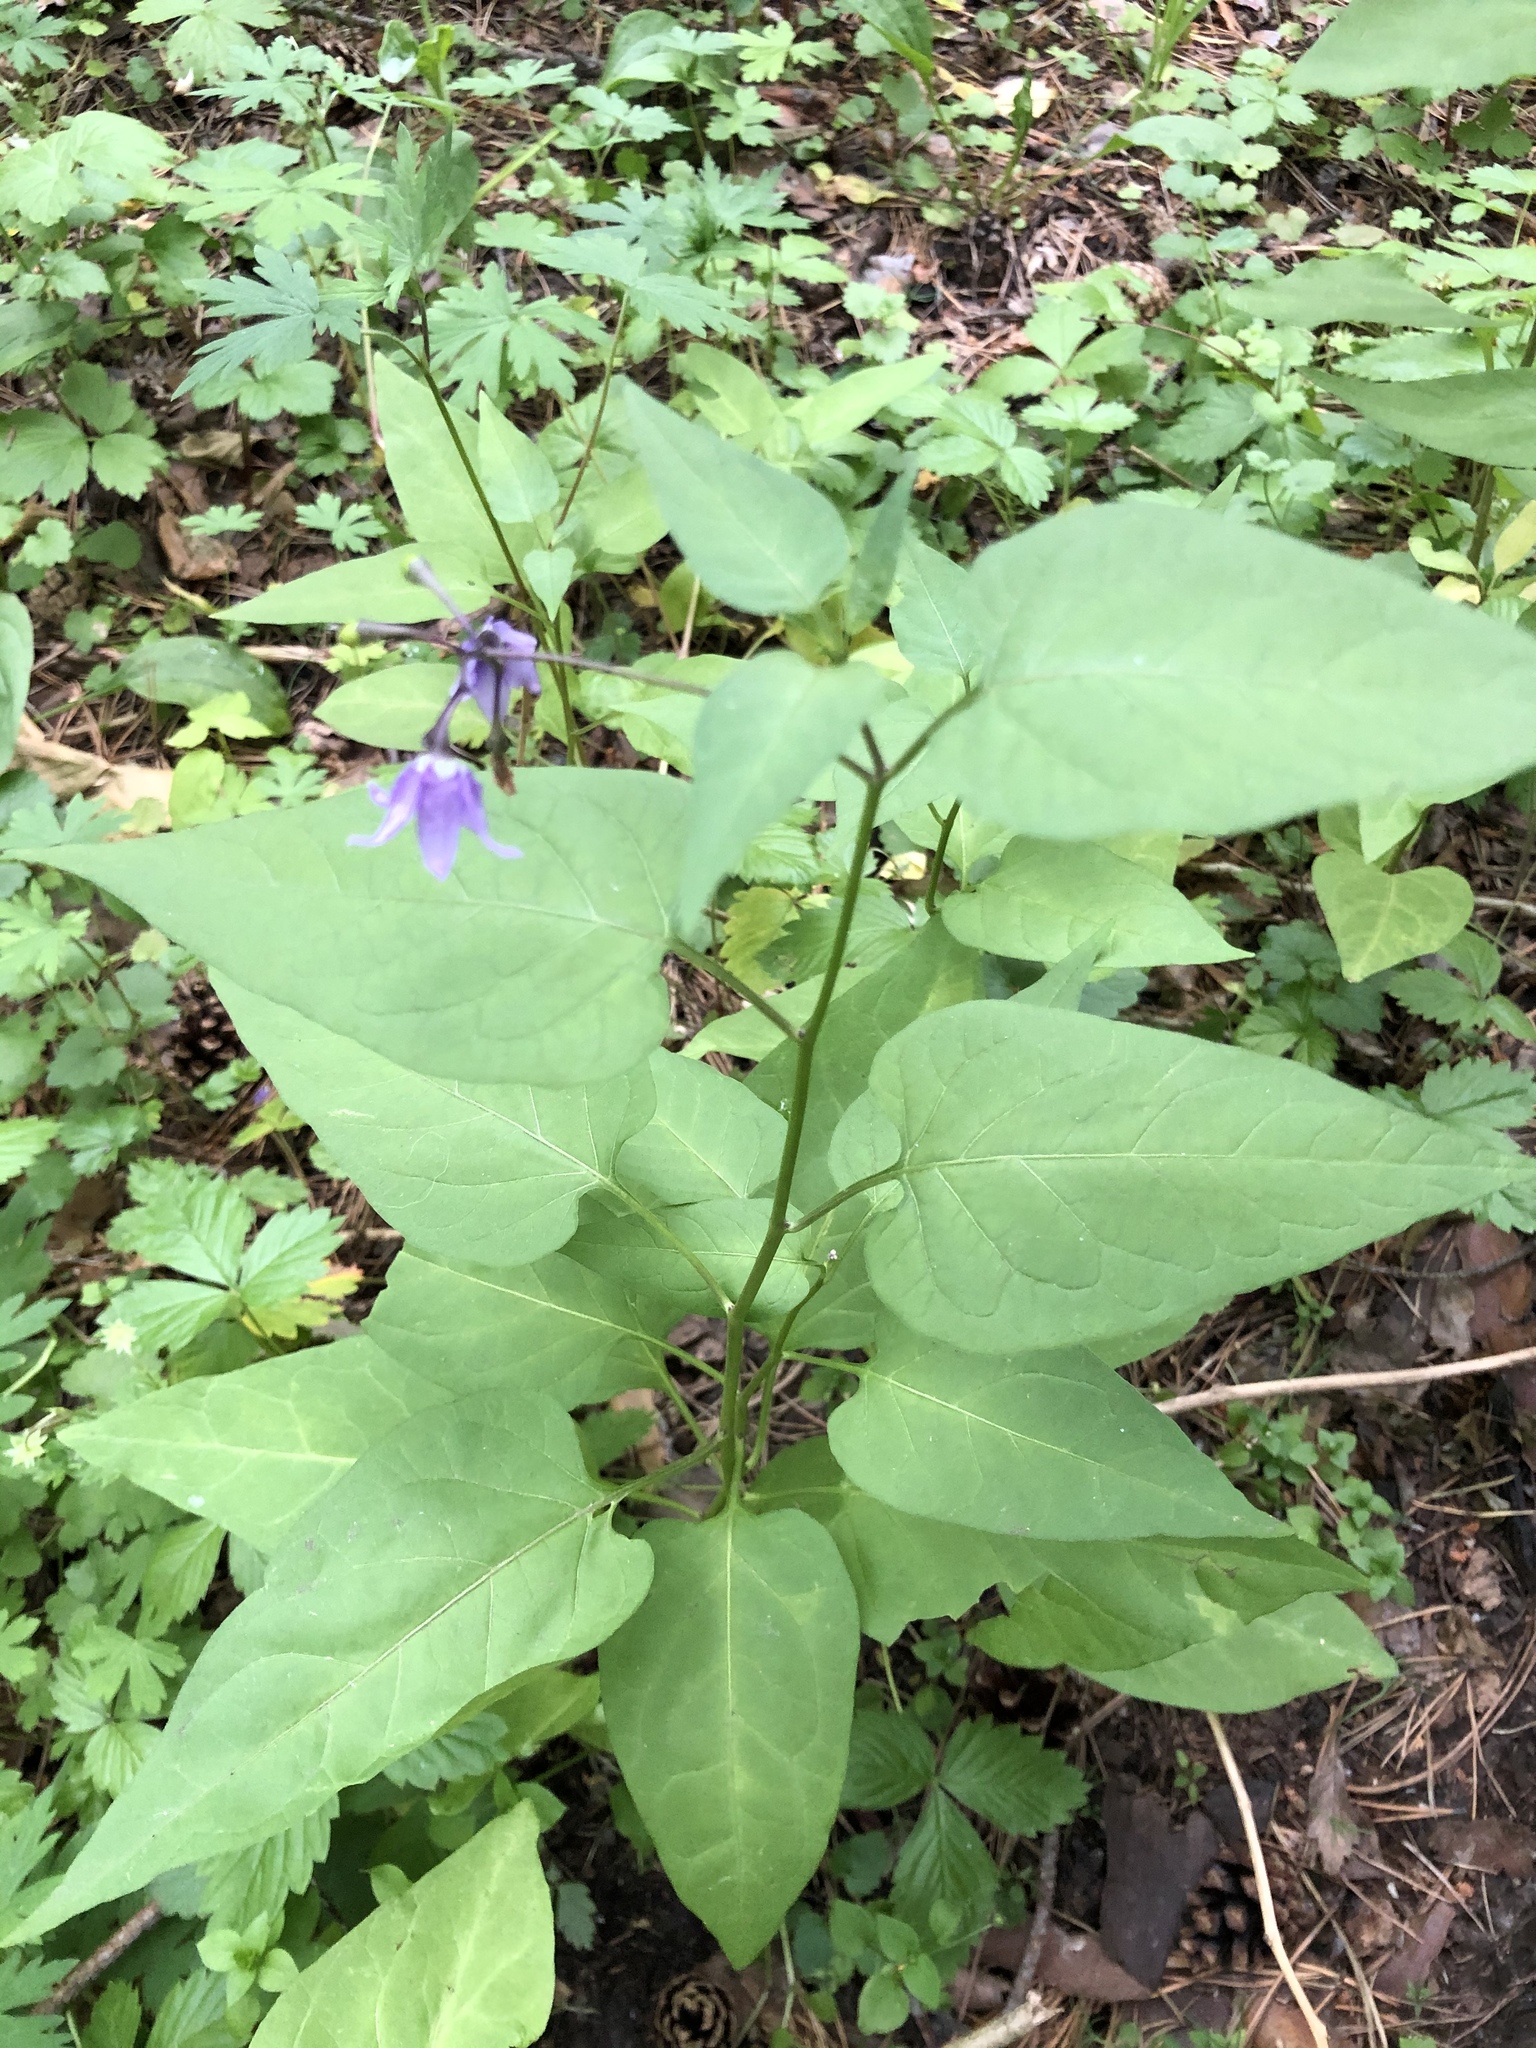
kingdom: Plantae
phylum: Tracheophyta
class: Magnoliopsida
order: Solanales
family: Solanaceae
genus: Solanum
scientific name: Solanum dulcamara
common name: Climbing nightshade
